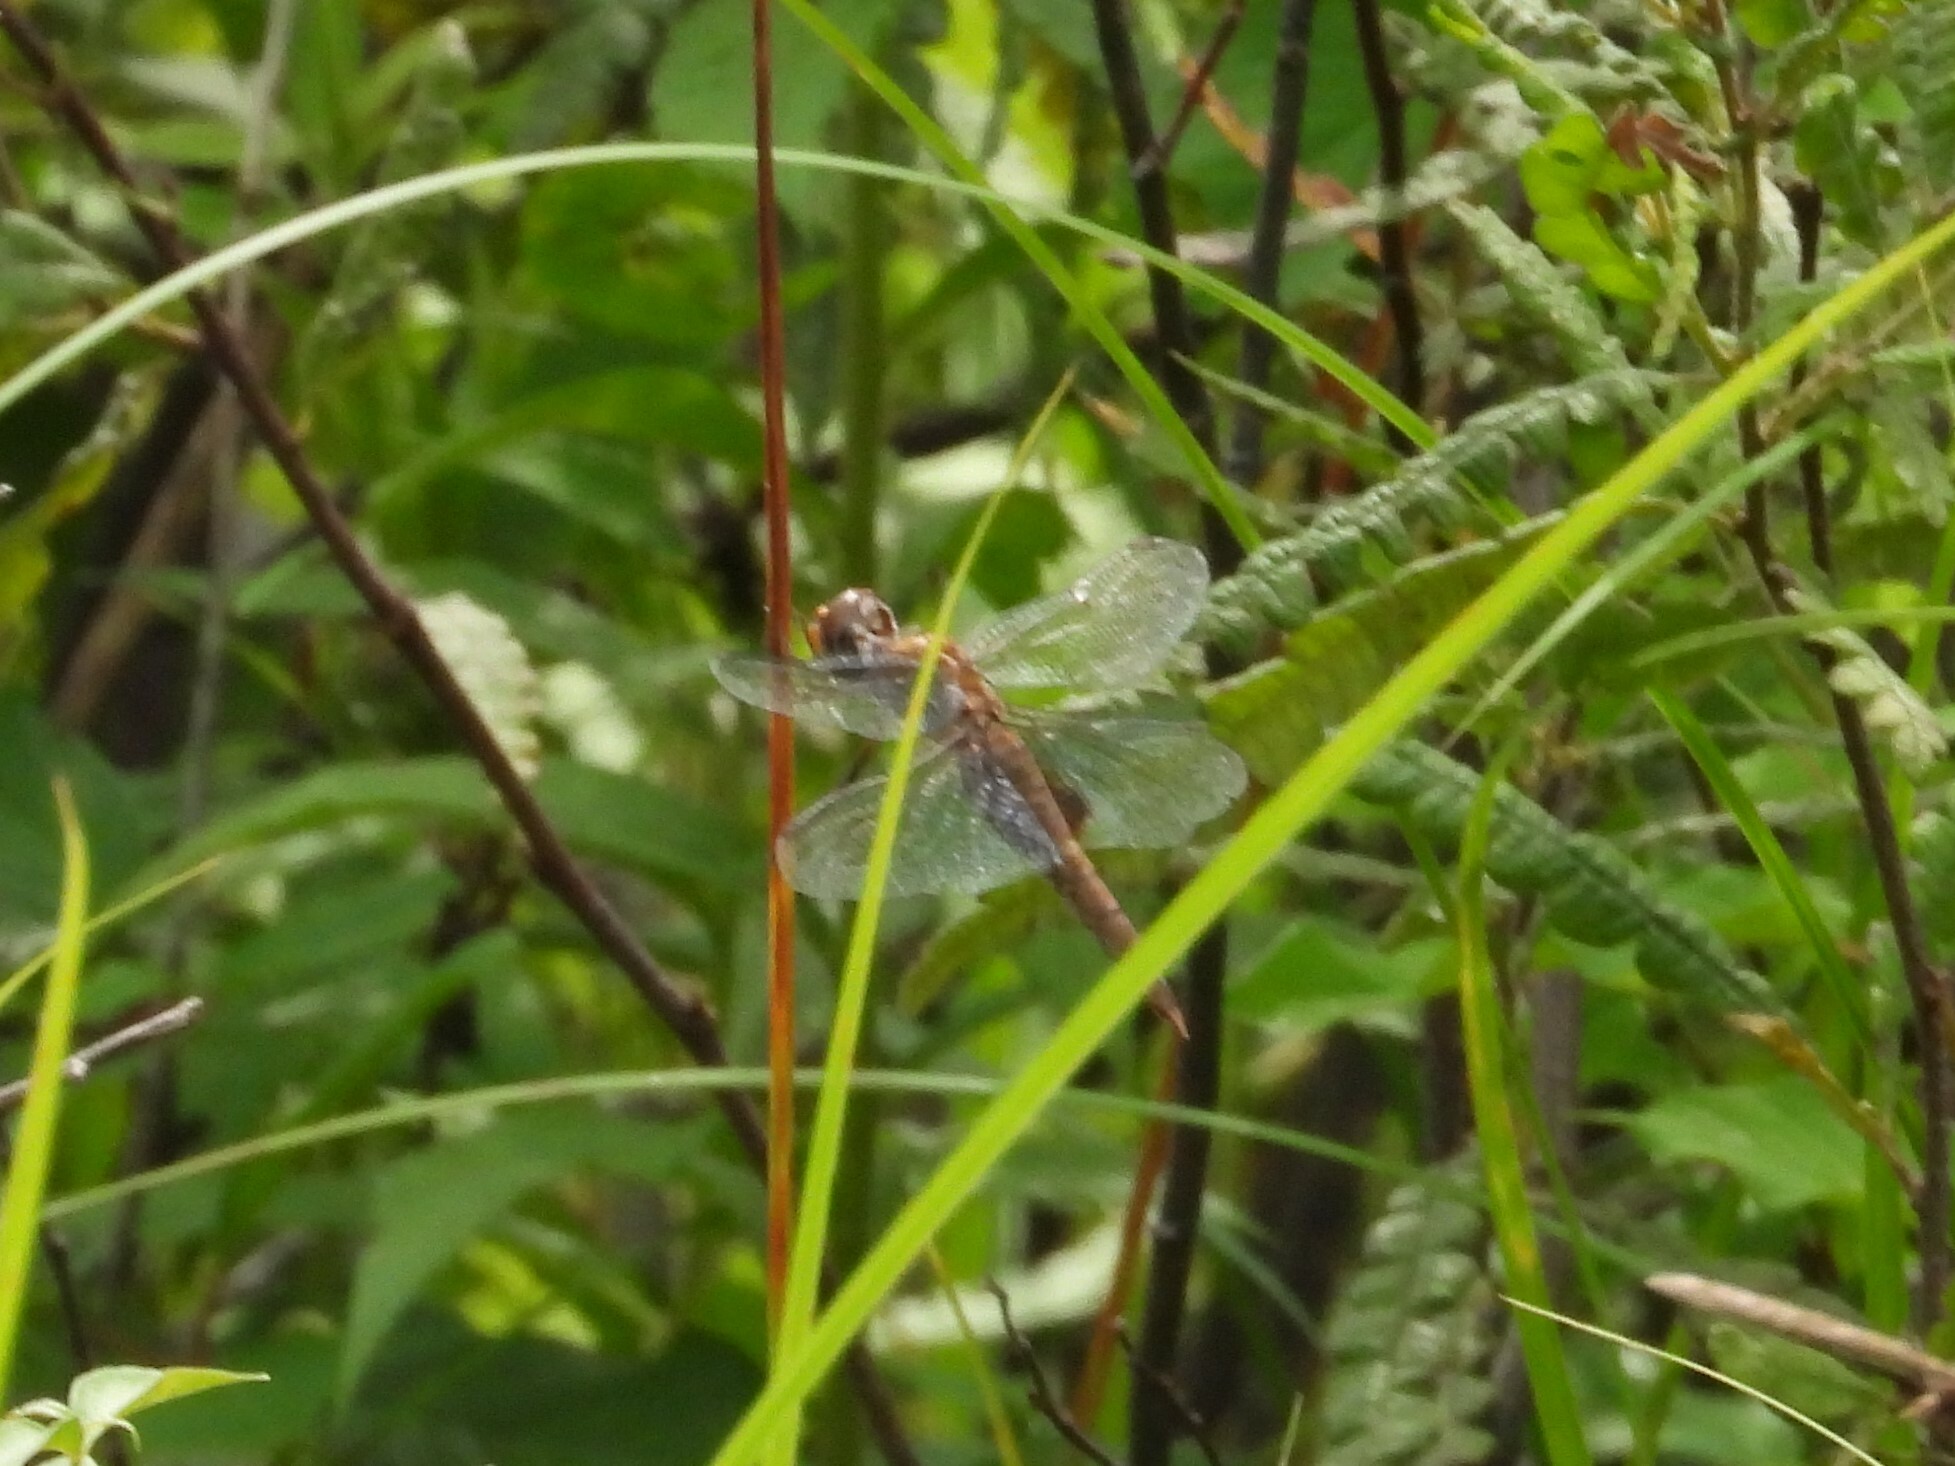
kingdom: Animalia
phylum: Arthropoda
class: Insecta
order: Odonata
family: Libellulidae
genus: Pantala
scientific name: Pantala hymenaea
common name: Spot-winged glider
